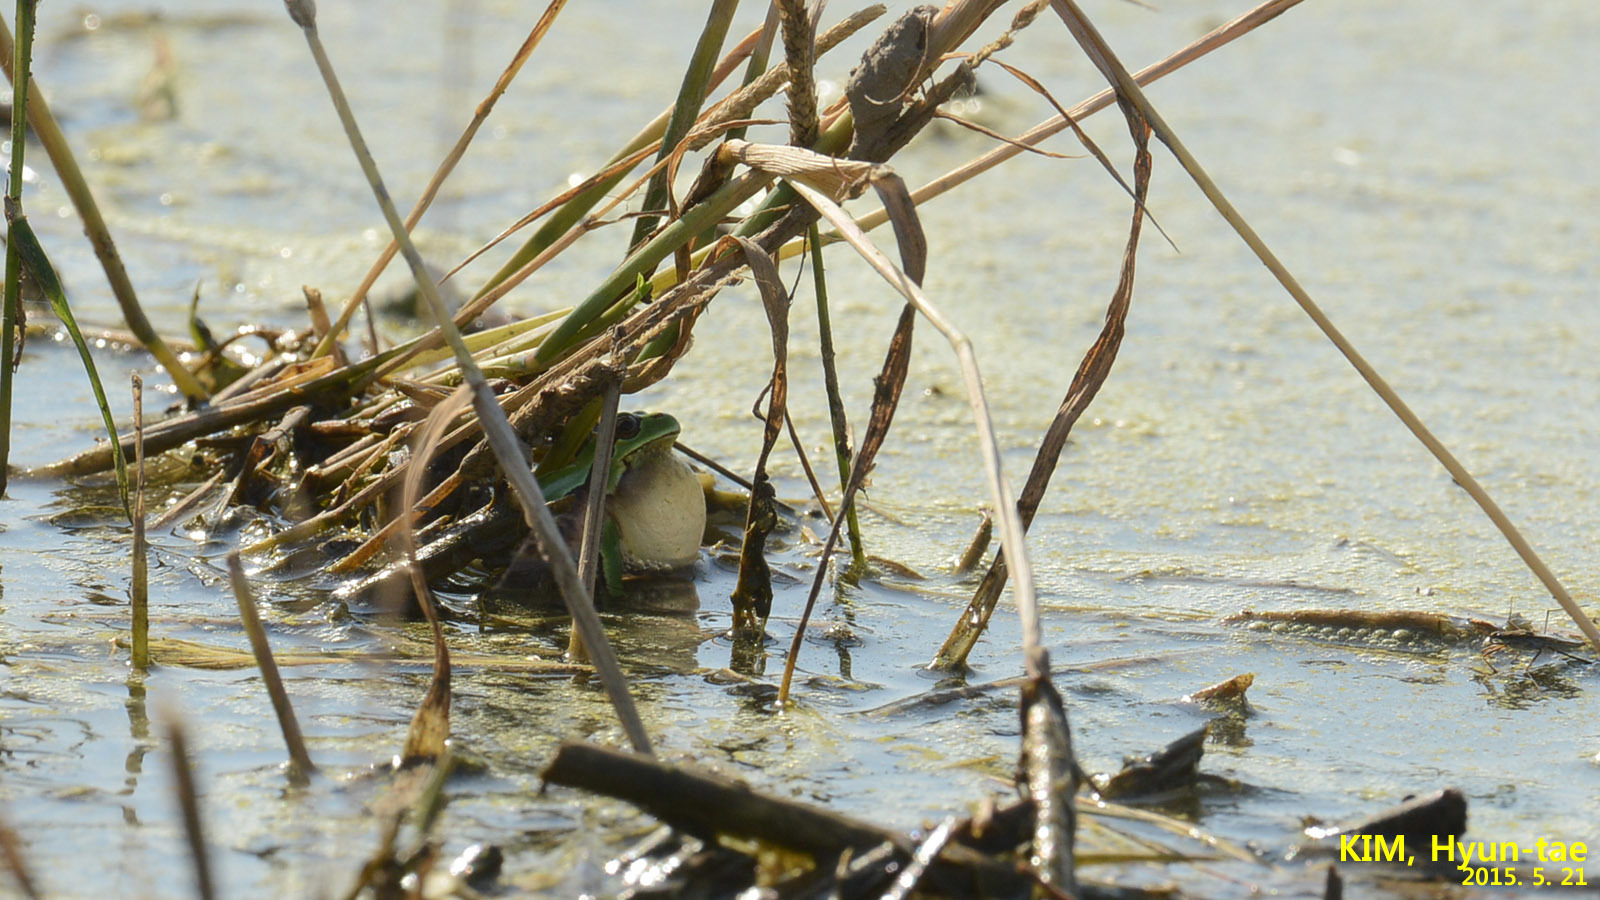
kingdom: Animalia
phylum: Chordata
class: Amphibia
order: Anura
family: Hylidae
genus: Dryophytes
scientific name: Dryophytes immaculatus
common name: North china treefrog
